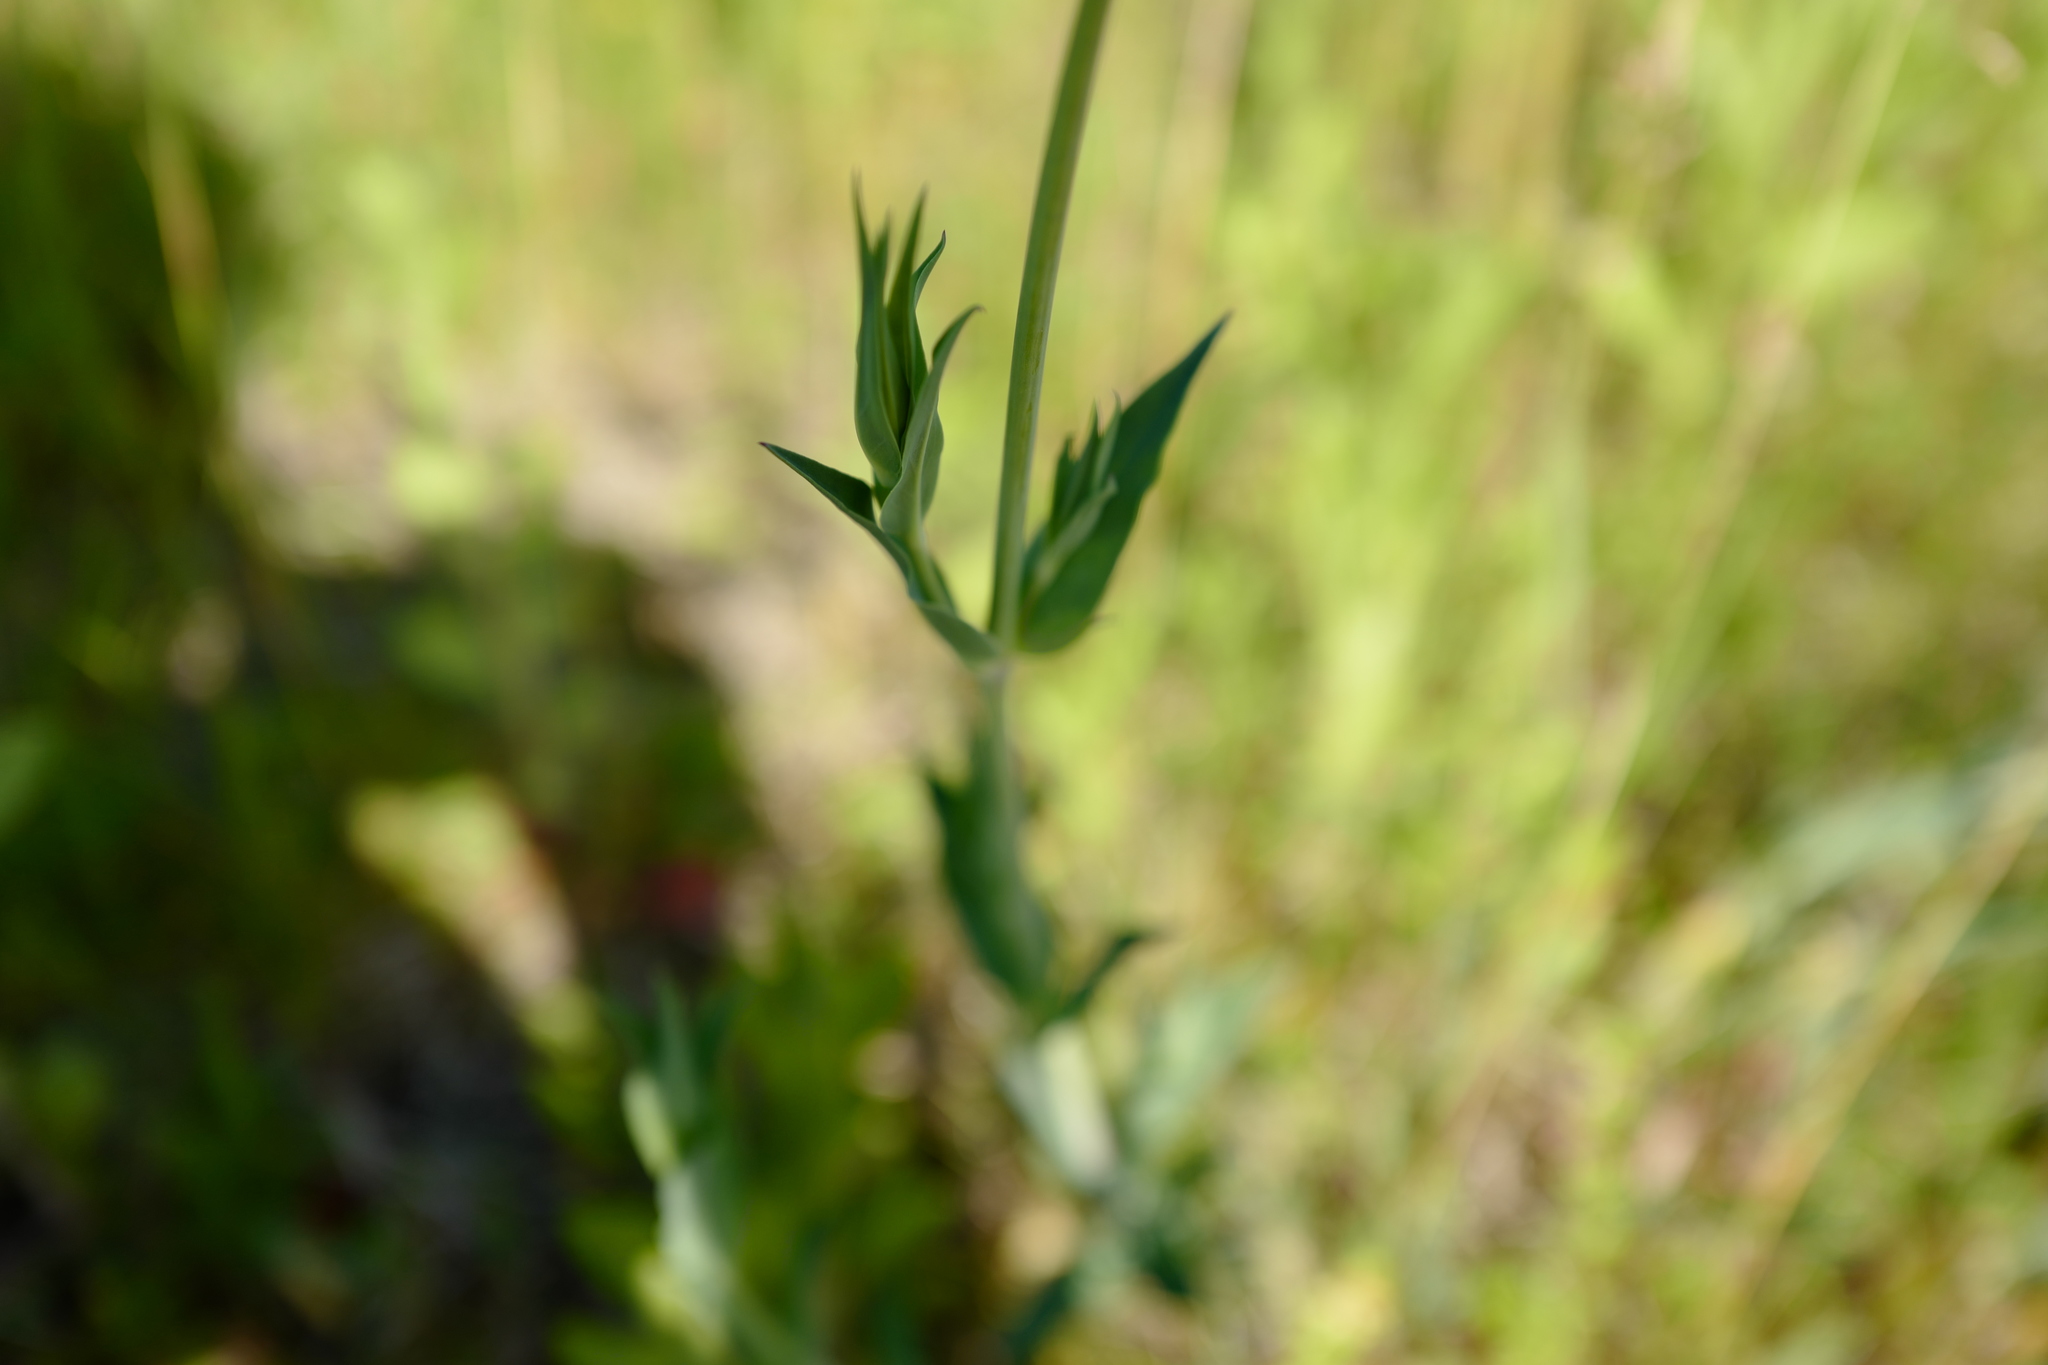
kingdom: Plantae
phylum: Tracheophyta
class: Magnoliopsida
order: Caryophyllales
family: Caryophyllaceae
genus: Silene
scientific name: Silene vulgaris
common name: Bladder campion
